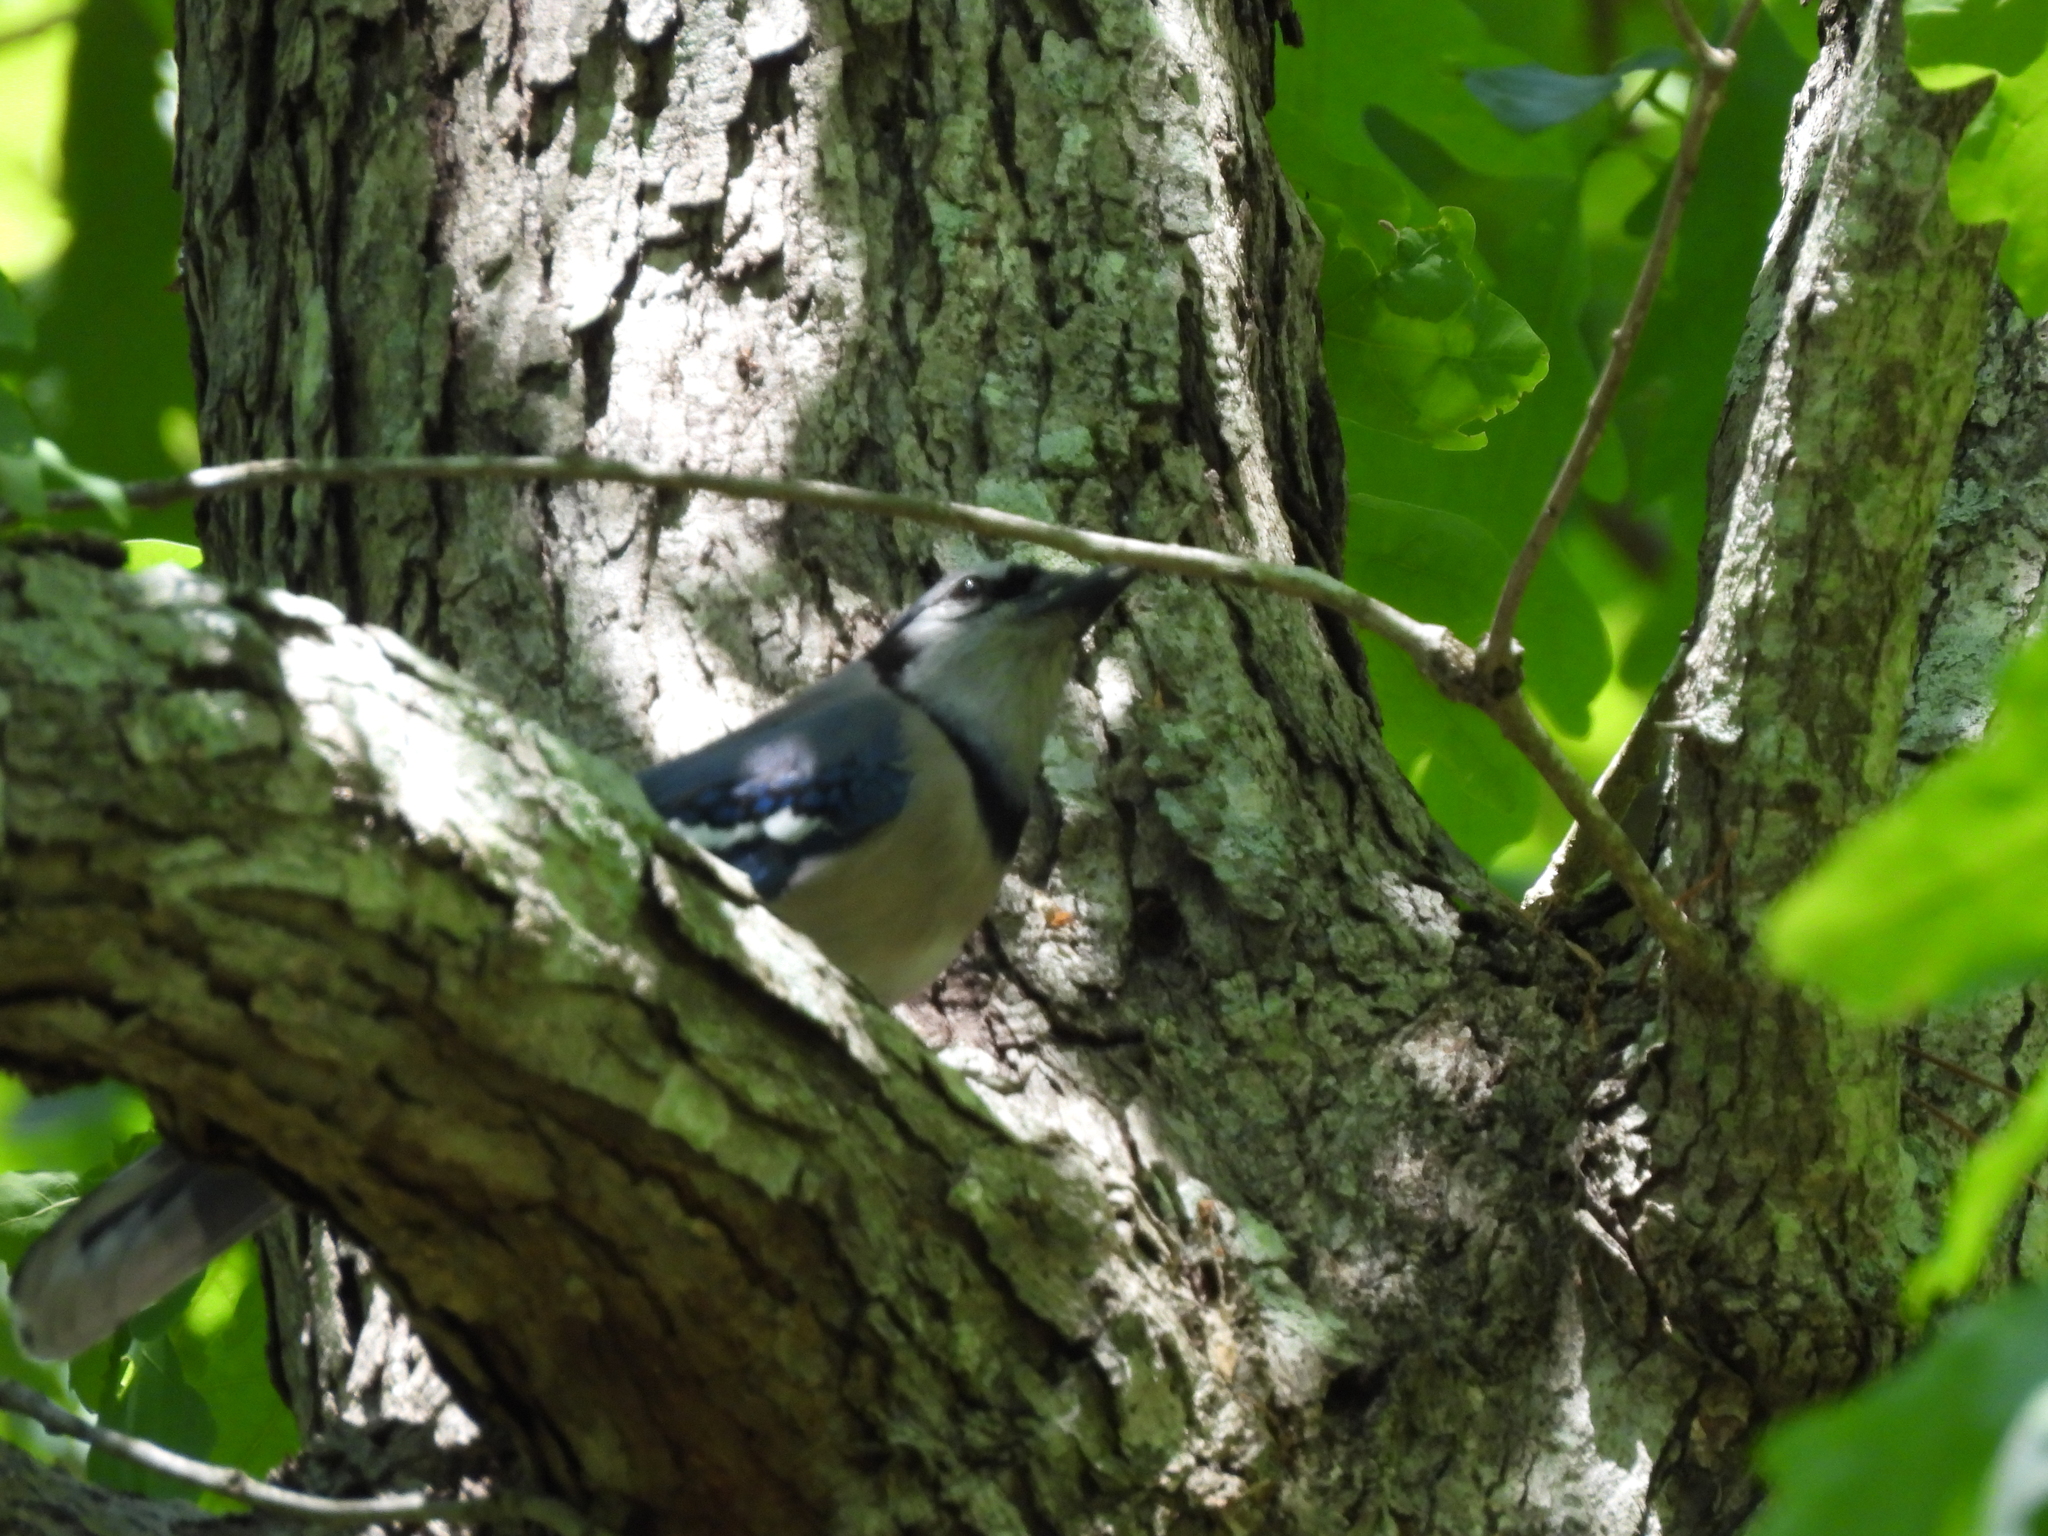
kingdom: Animalia
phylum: Chordata
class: Aves
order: Passeriformes
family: Corvidae
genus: Cyanocitta
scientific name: Cyanocitta cristata
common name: Blue jay
